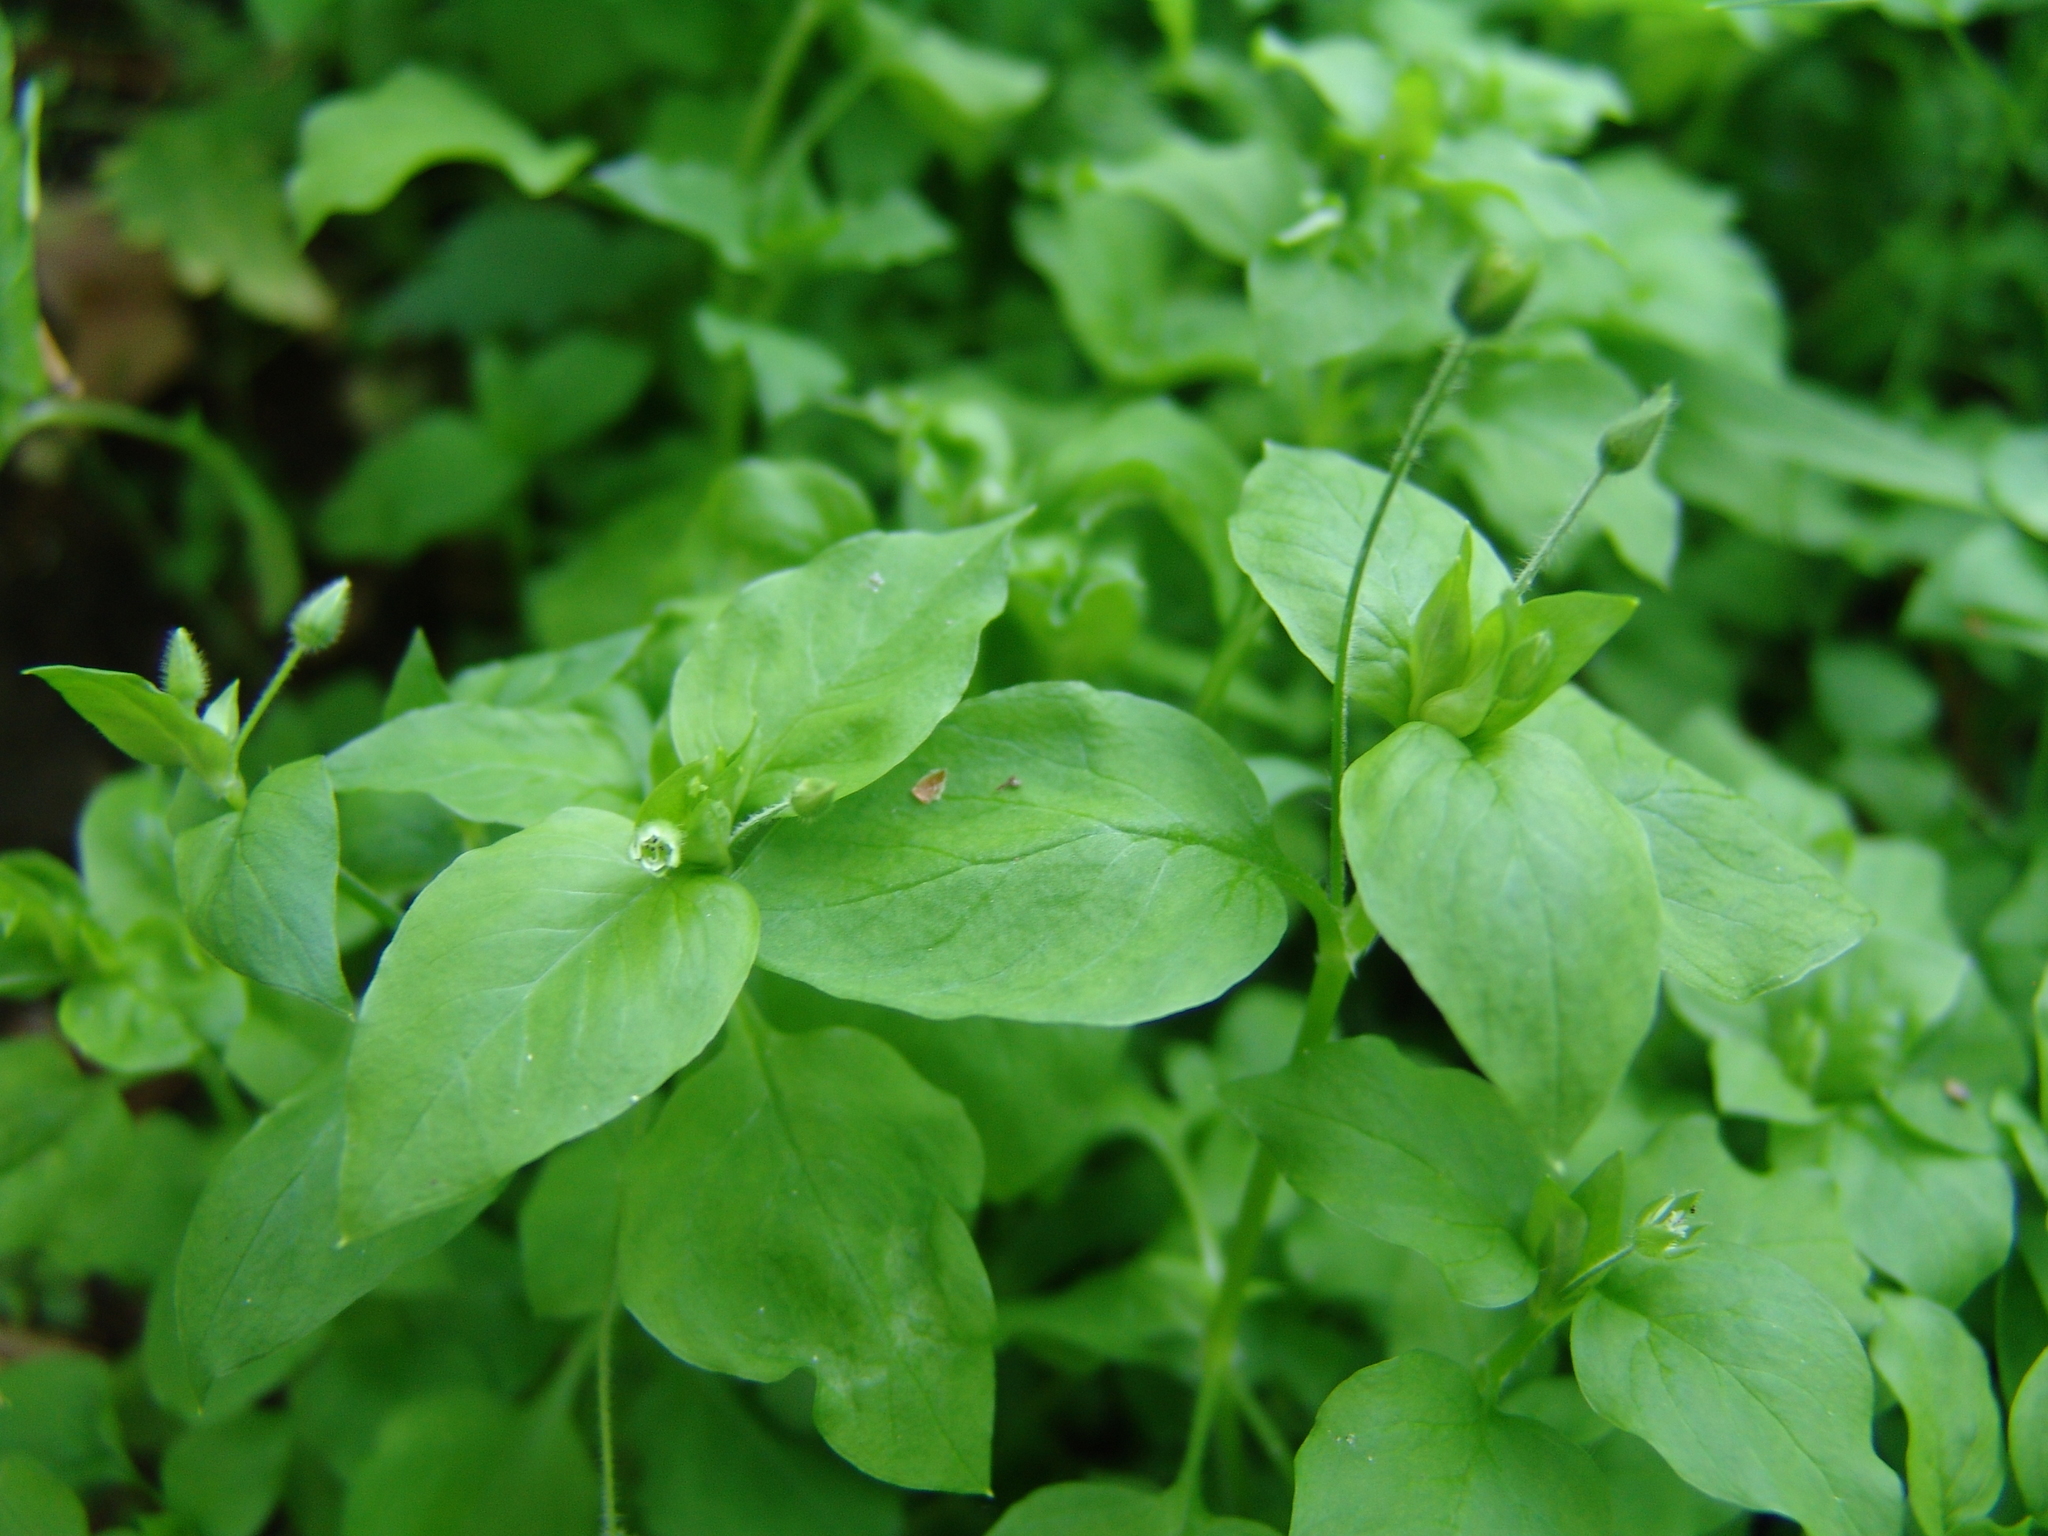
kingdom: Plantae
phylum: Tracheophyta
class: Magnoliopsida
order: Caryophyllales
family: Caryophyllaceae
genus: Stellaria
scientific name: Stellaria media
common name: Common chickweed
